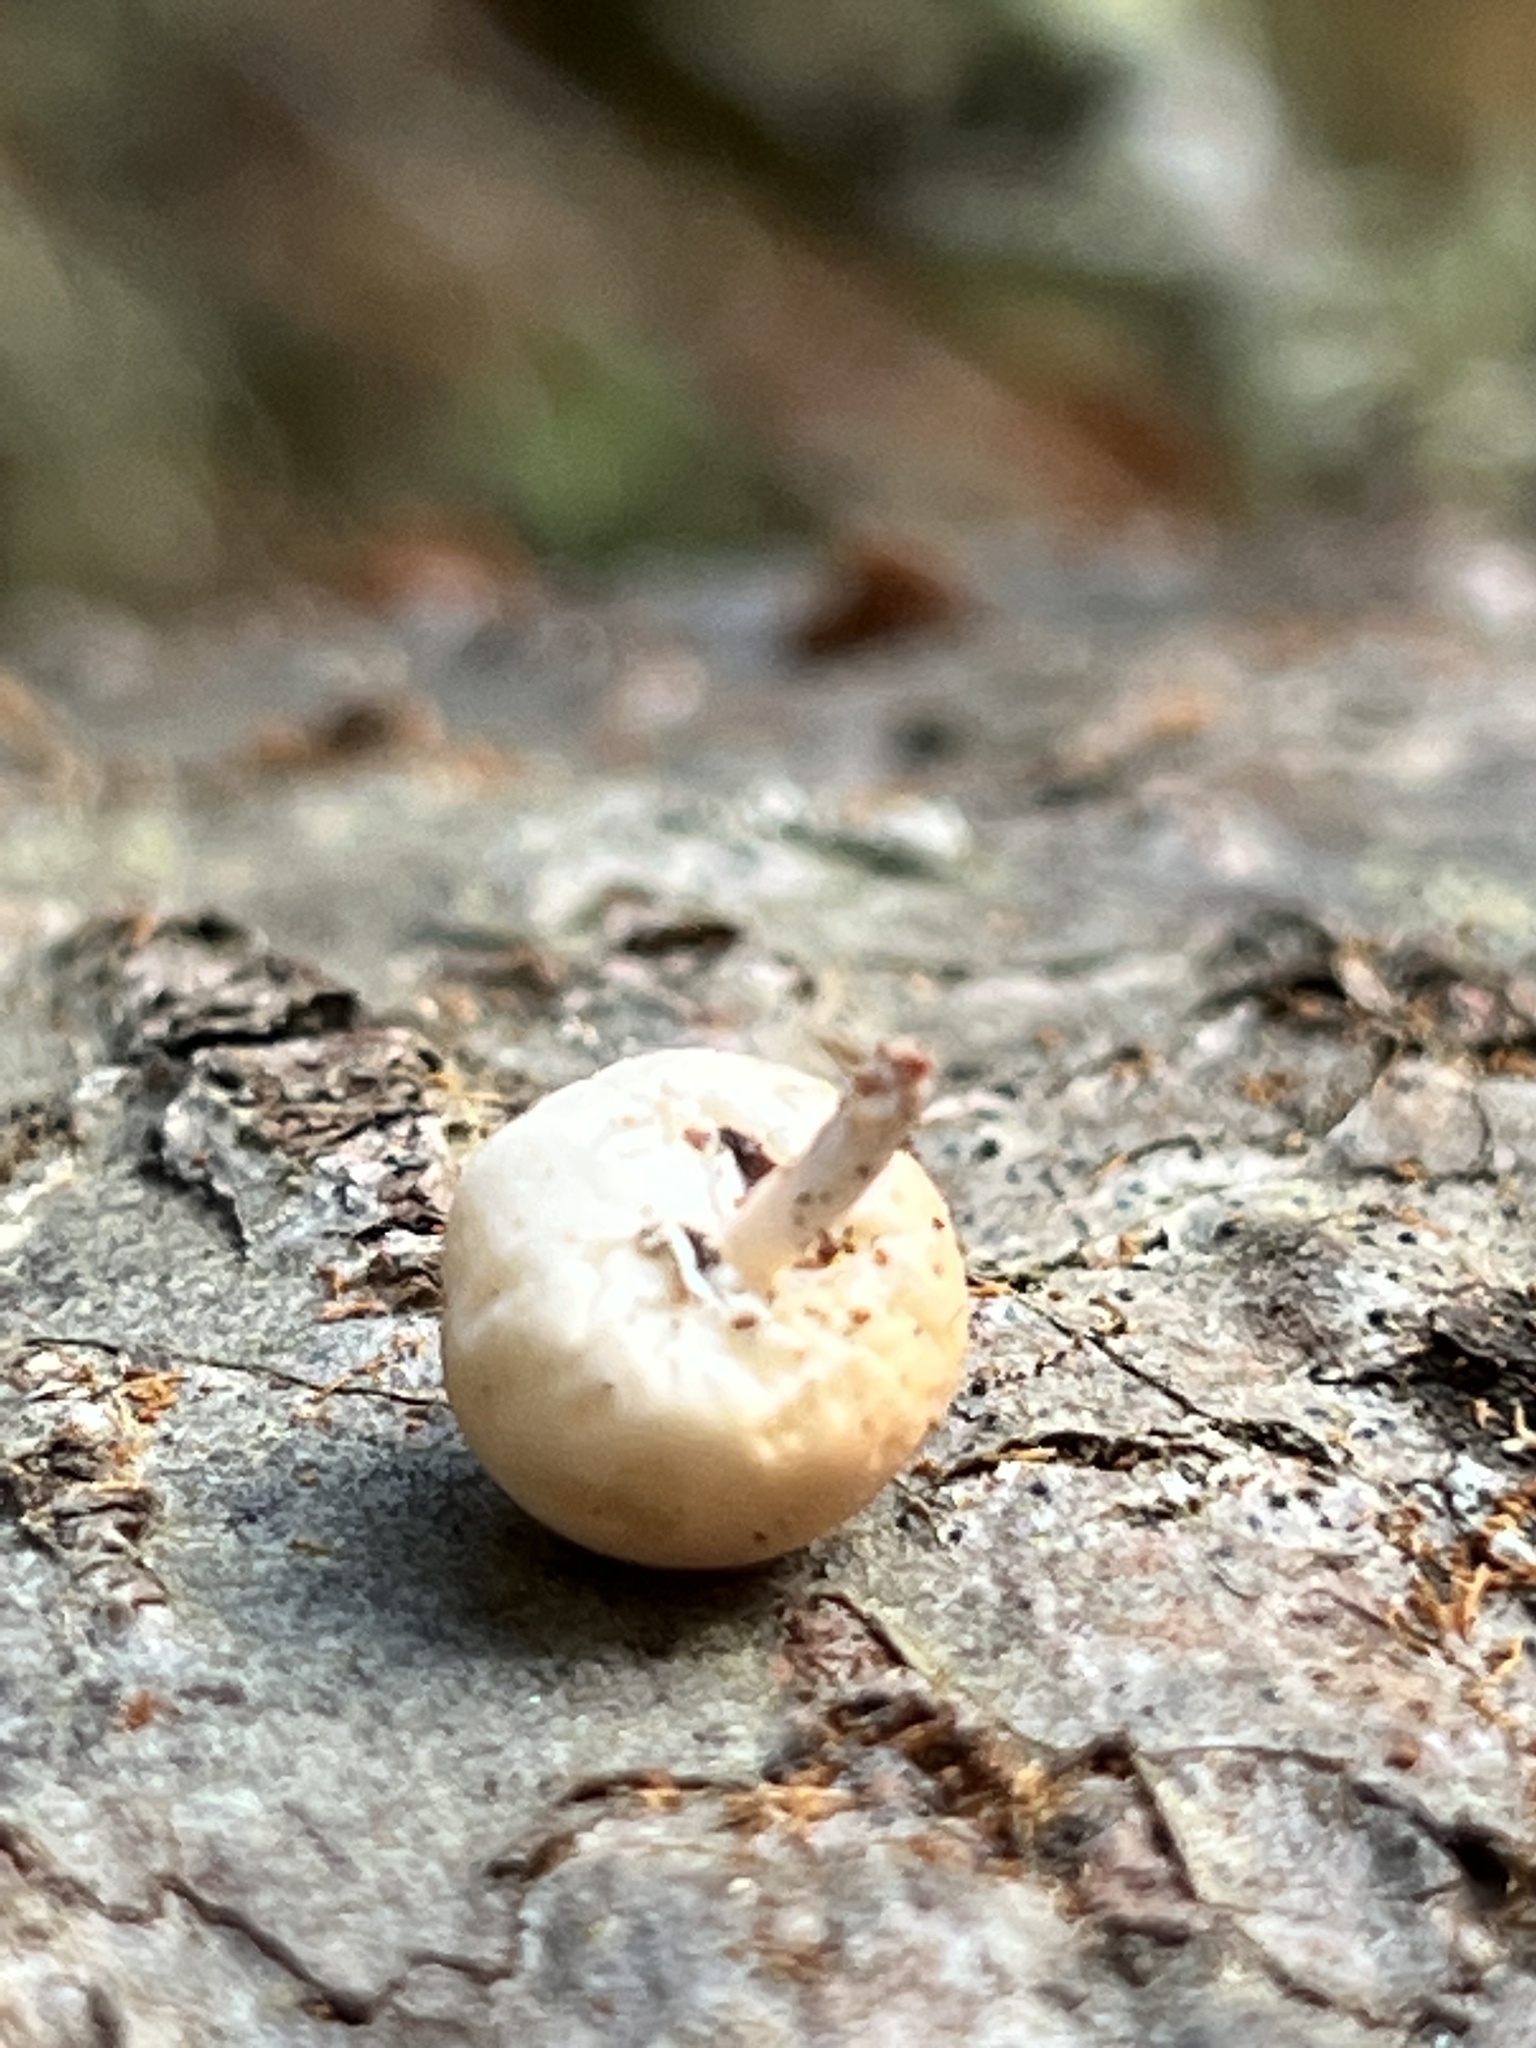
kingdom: Fungi
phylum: Basidiomycota
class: Agaricomycetes
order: Polyporales
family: Polyporaceae
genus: Cryptoporus
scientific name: Cryptoporus volvatus
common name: Veiled polypore
